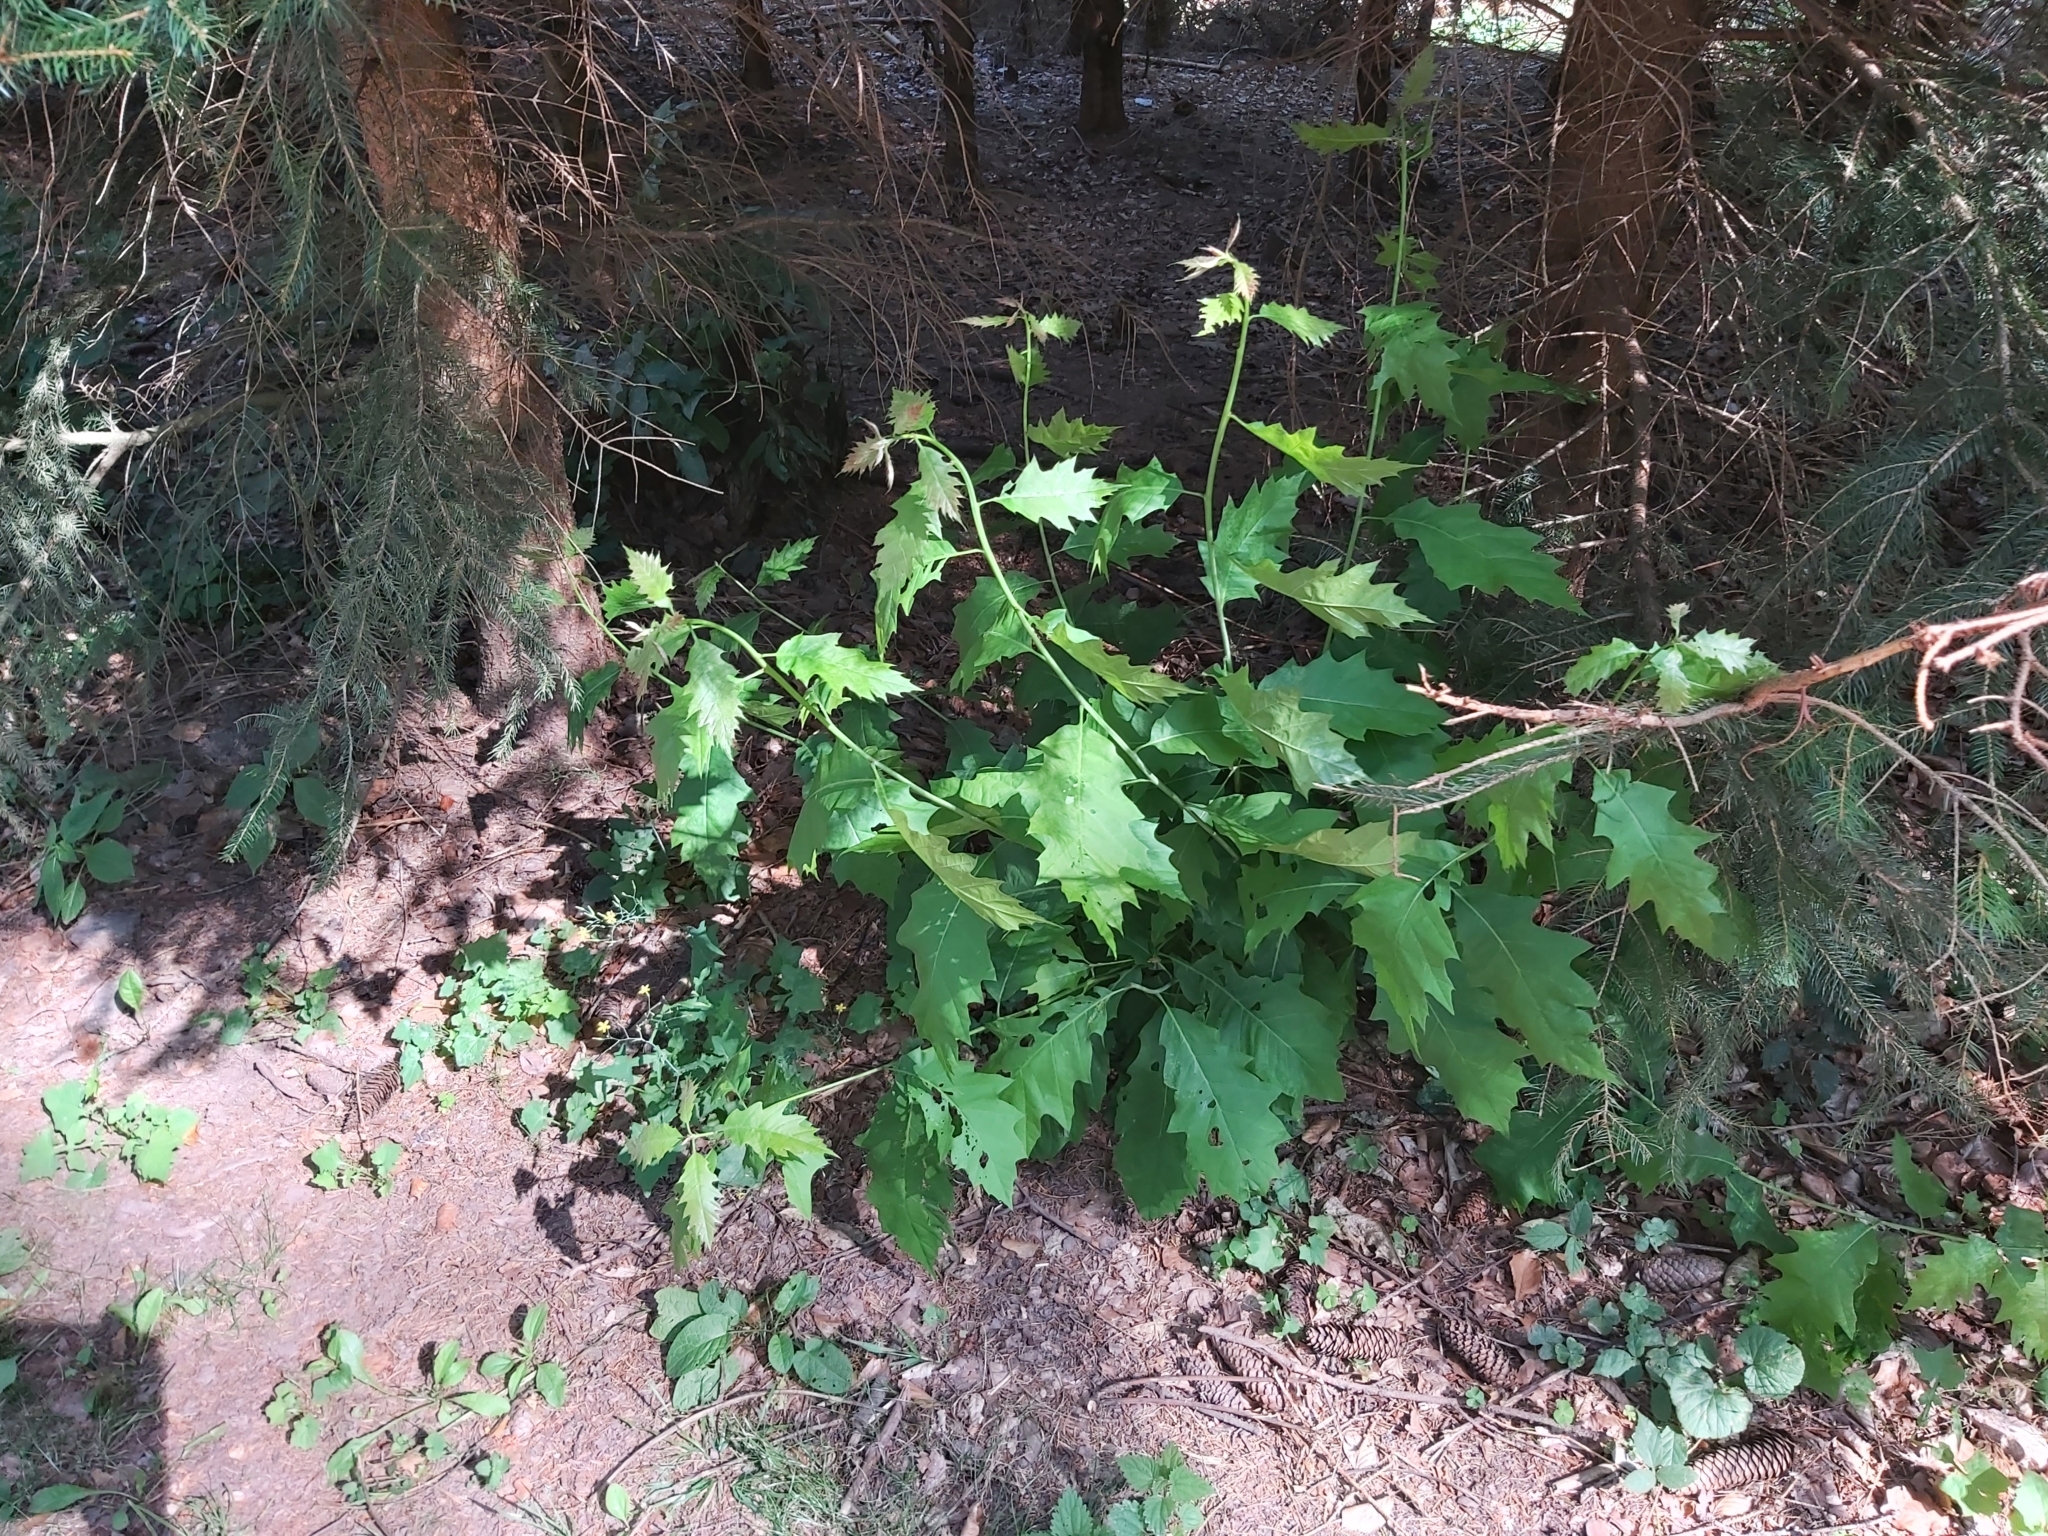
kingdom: Plantae
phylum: Tracheophyta
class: Magnoliopsida
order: Fagales
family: Fagaceae
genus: Quercus
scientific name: Quercus rubra
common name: Red oak
